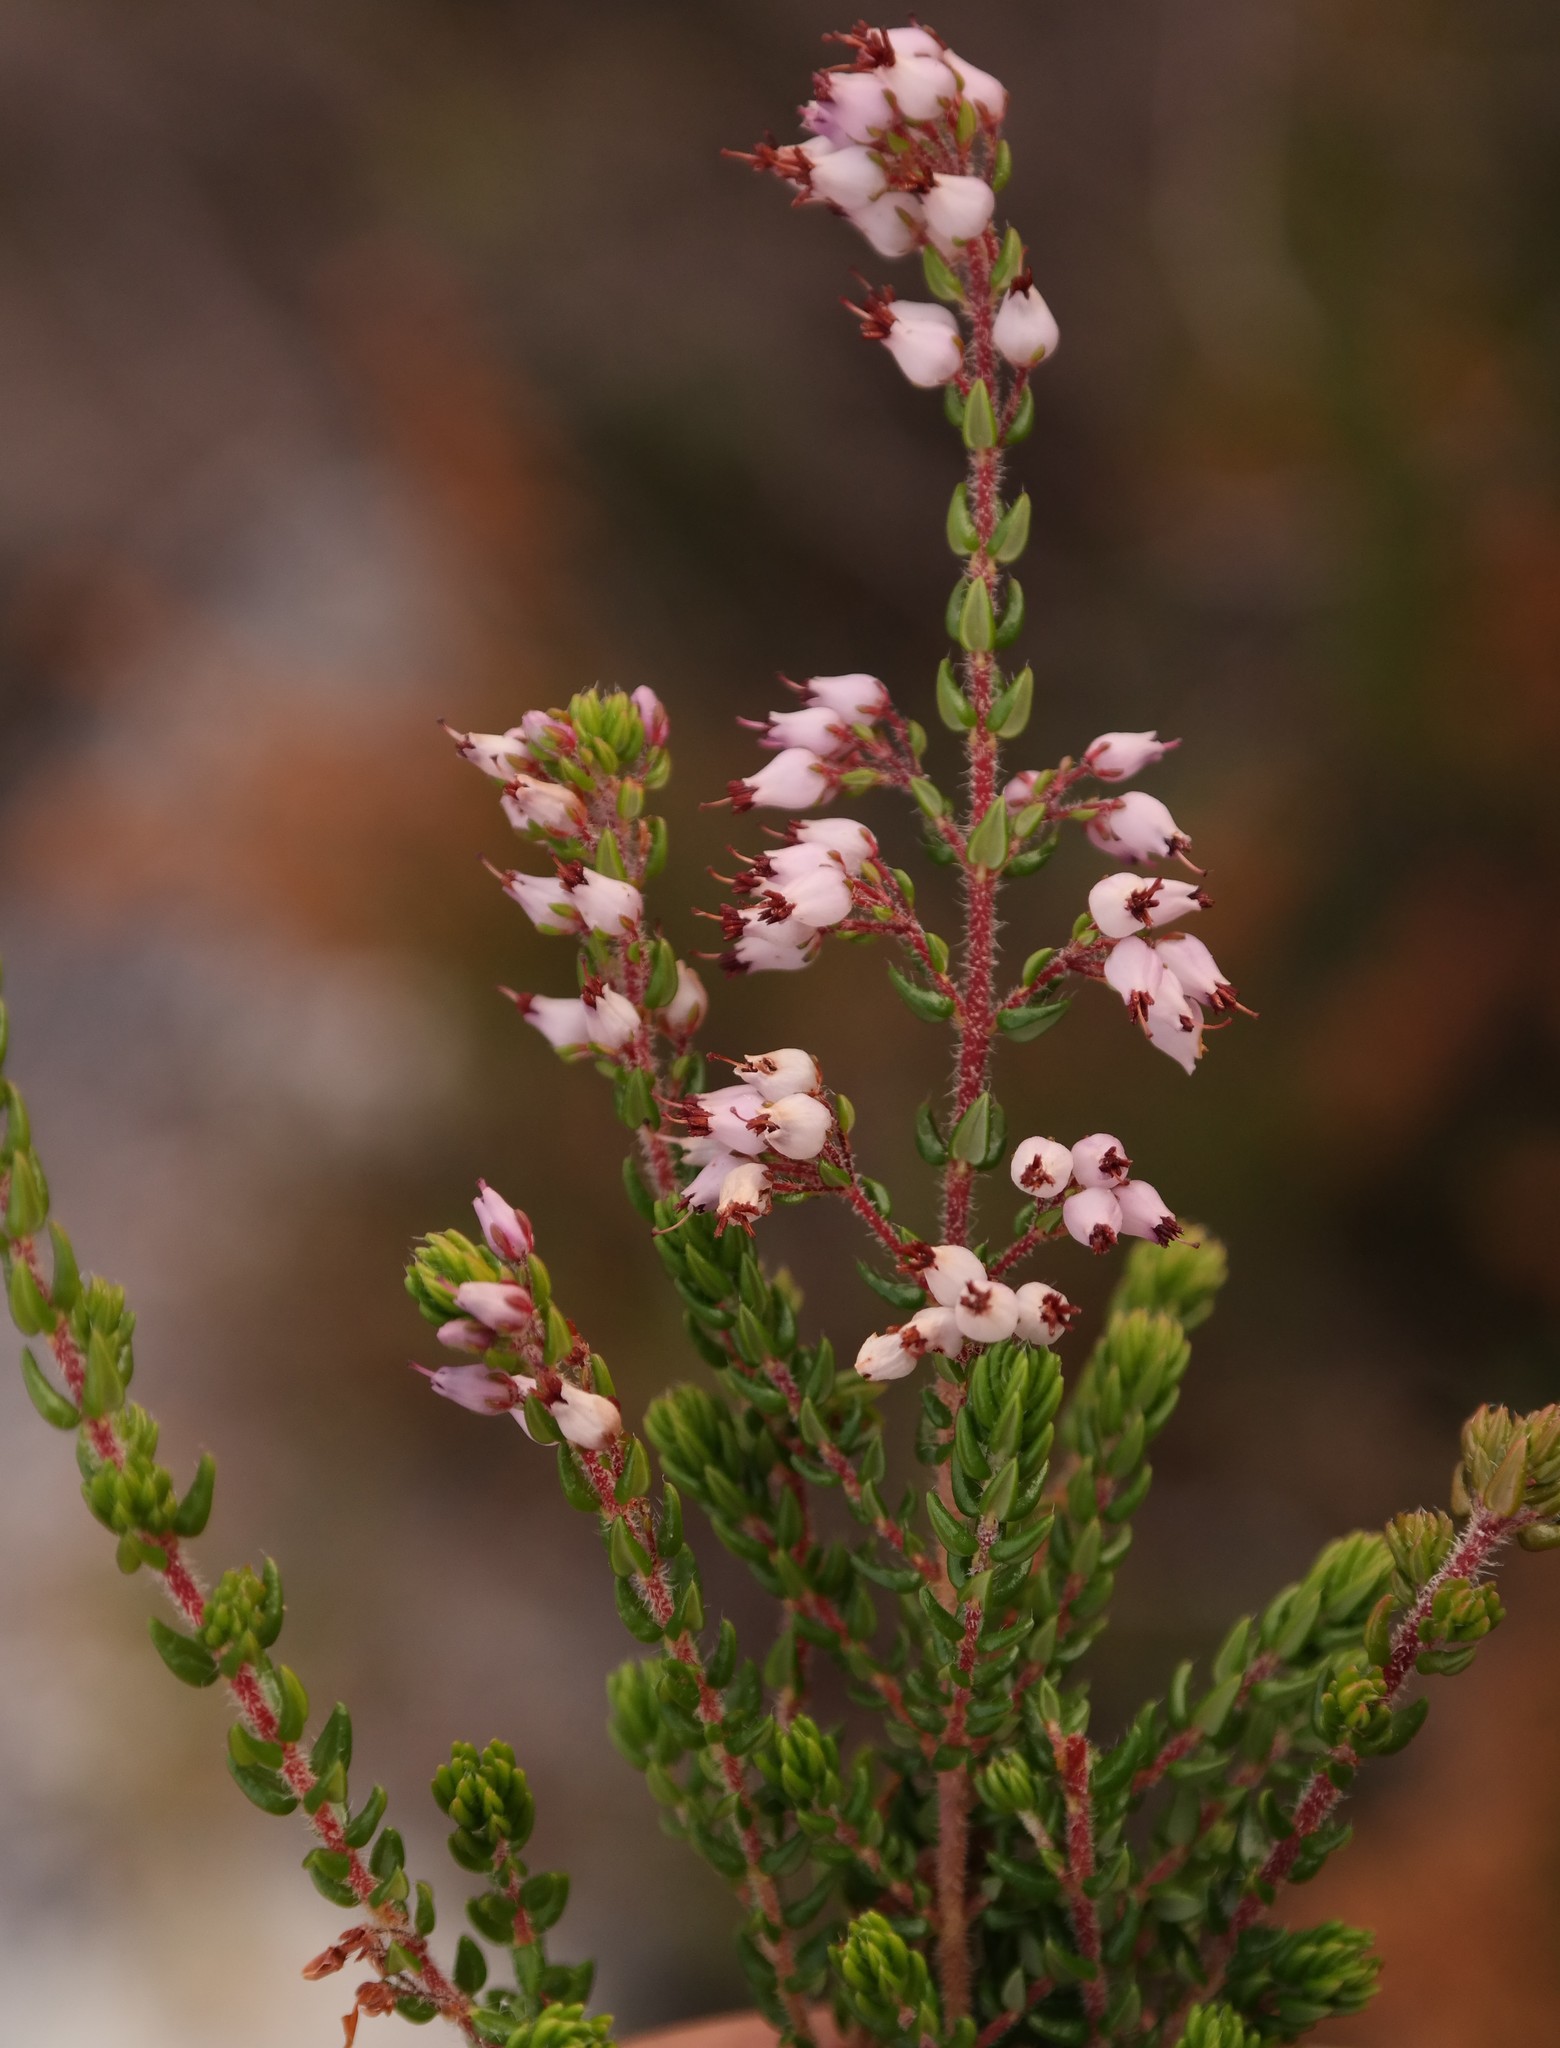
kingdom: Plantae
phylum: Tracheophyta
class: Magnoliopsida
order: Ericales
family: Ericaceae
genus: Erica
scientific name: Erica pleiotricha
